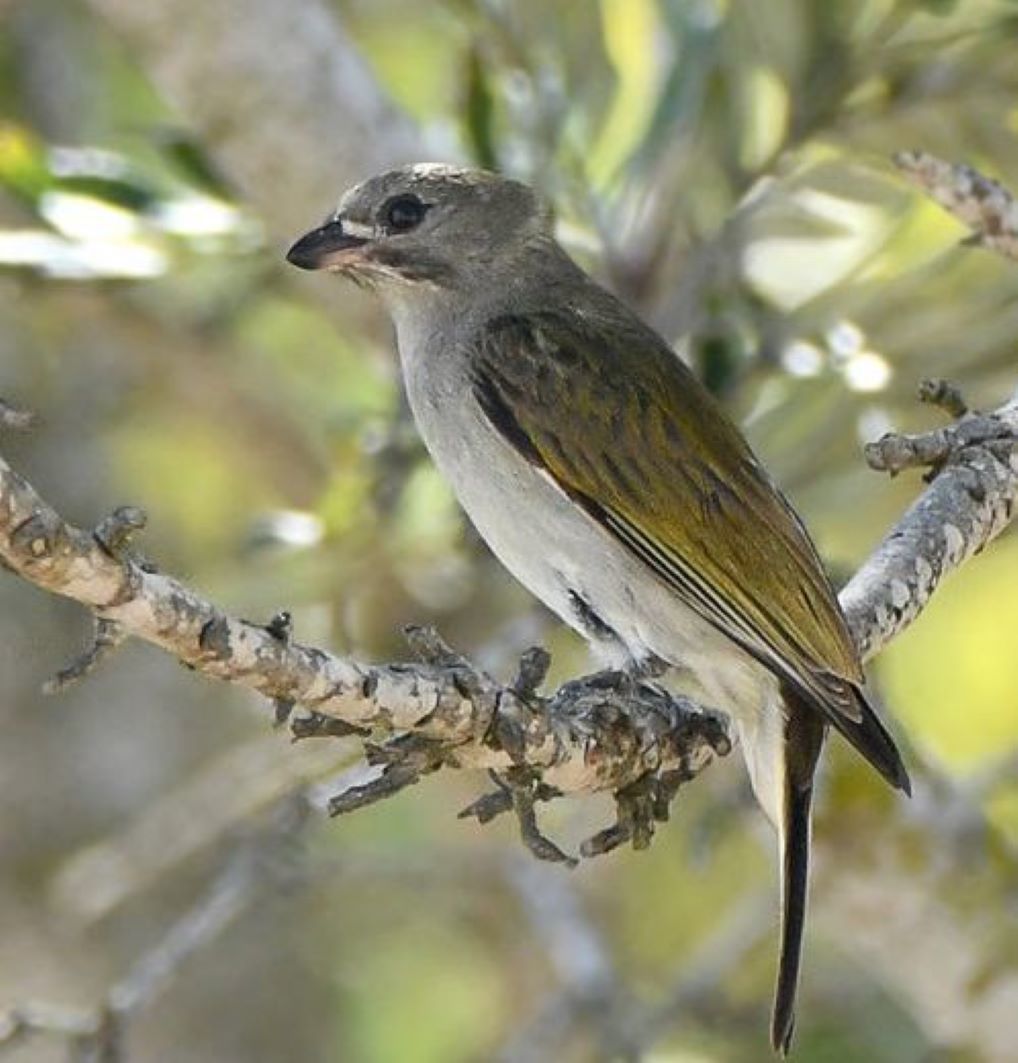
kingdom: Animalia
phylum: Chordata
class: Aves
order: Piciformes
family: Indicatoridae
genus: Indicator
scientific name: Indicator minor
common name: Lesser honeyguide
